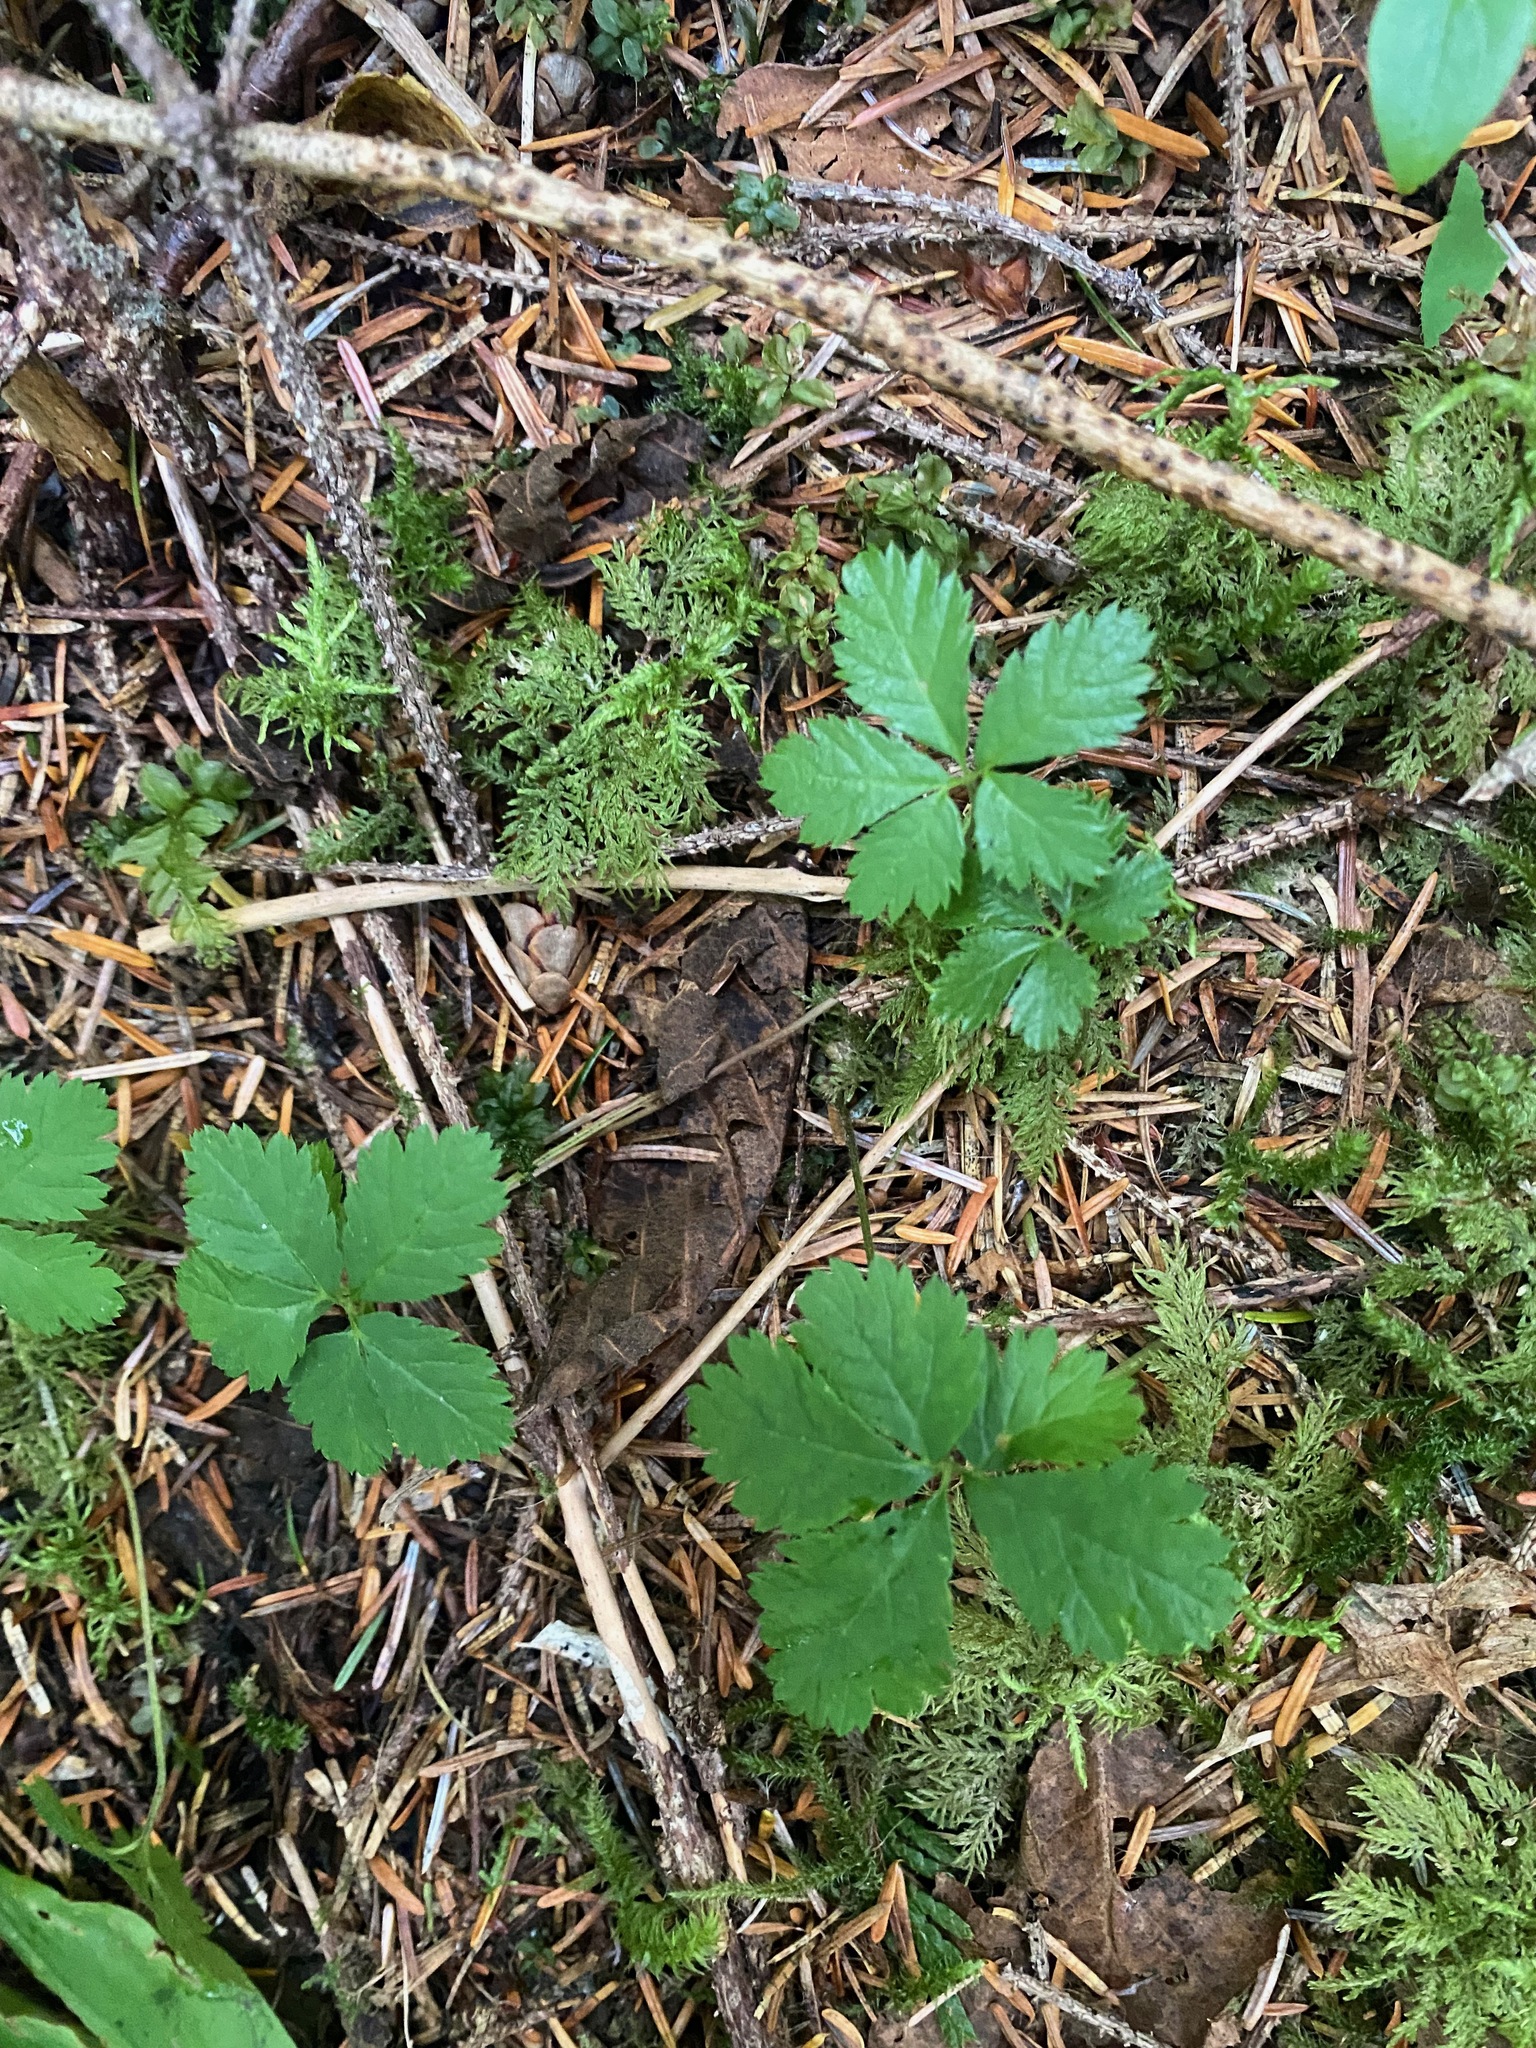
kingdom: Plantae
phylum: Tracheophyta
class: Magnoliopsida
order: Rosales
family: Rosaceae
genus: Rubus
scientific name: Rubus pedatus
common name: Creeping raspberry
